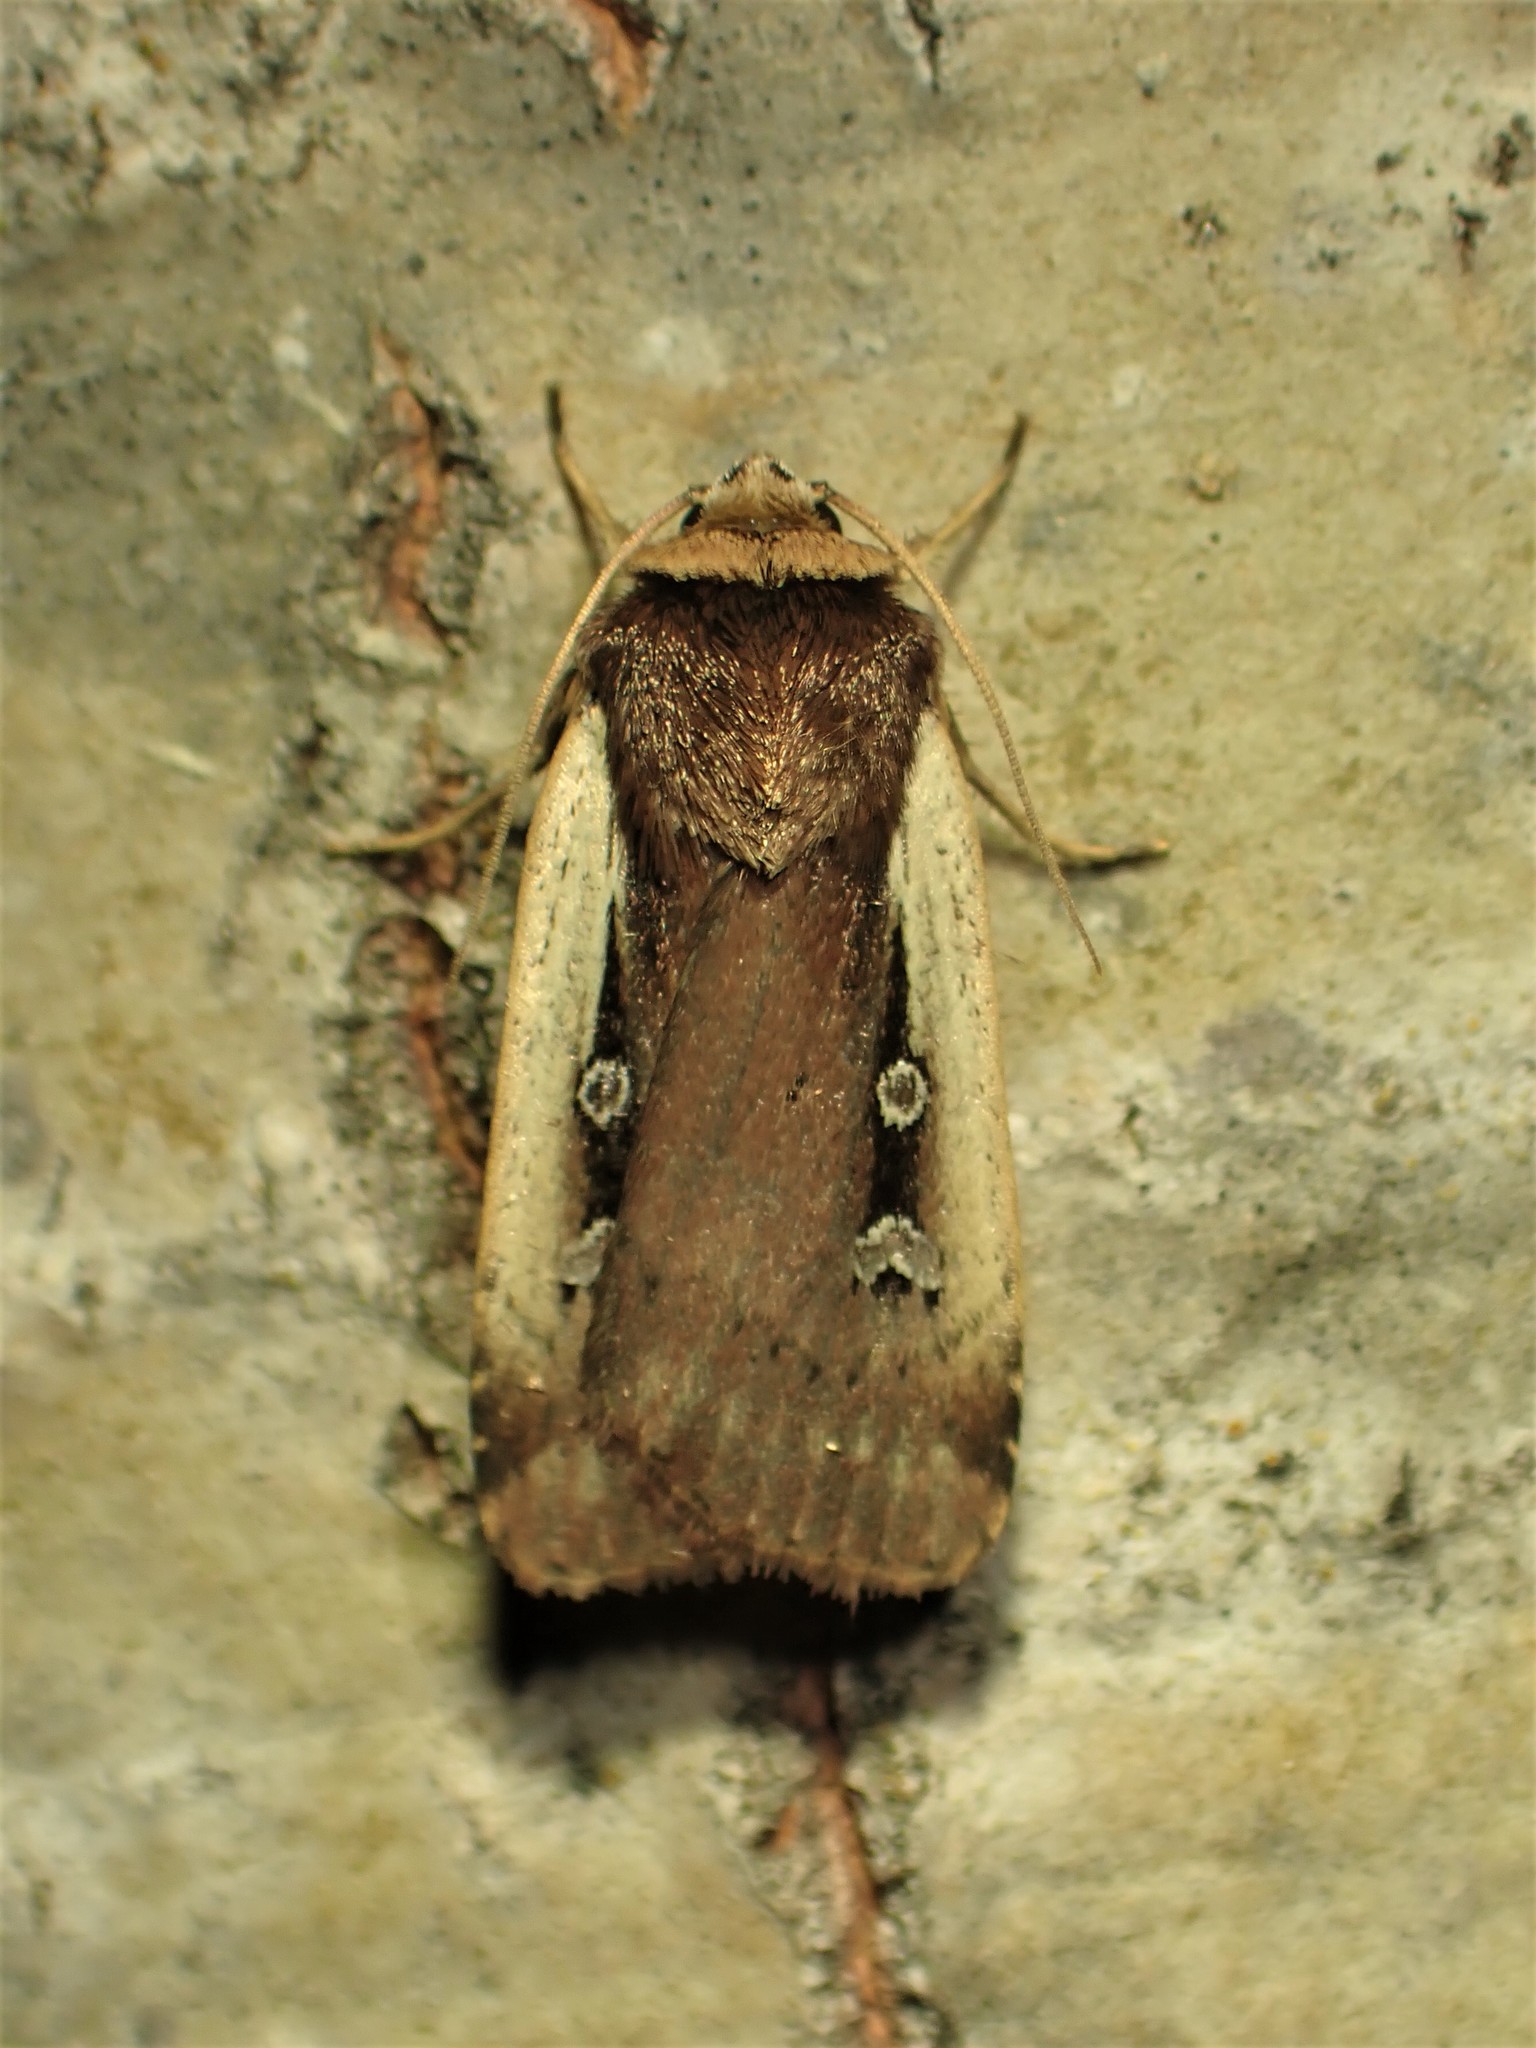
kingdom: Animalia
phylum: Arthropoda
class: Insecta
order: Lepidoptera
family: Noctuidae
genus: Ochropleura
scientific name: Ochropleura implecta
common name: Flame-shouldered dart
